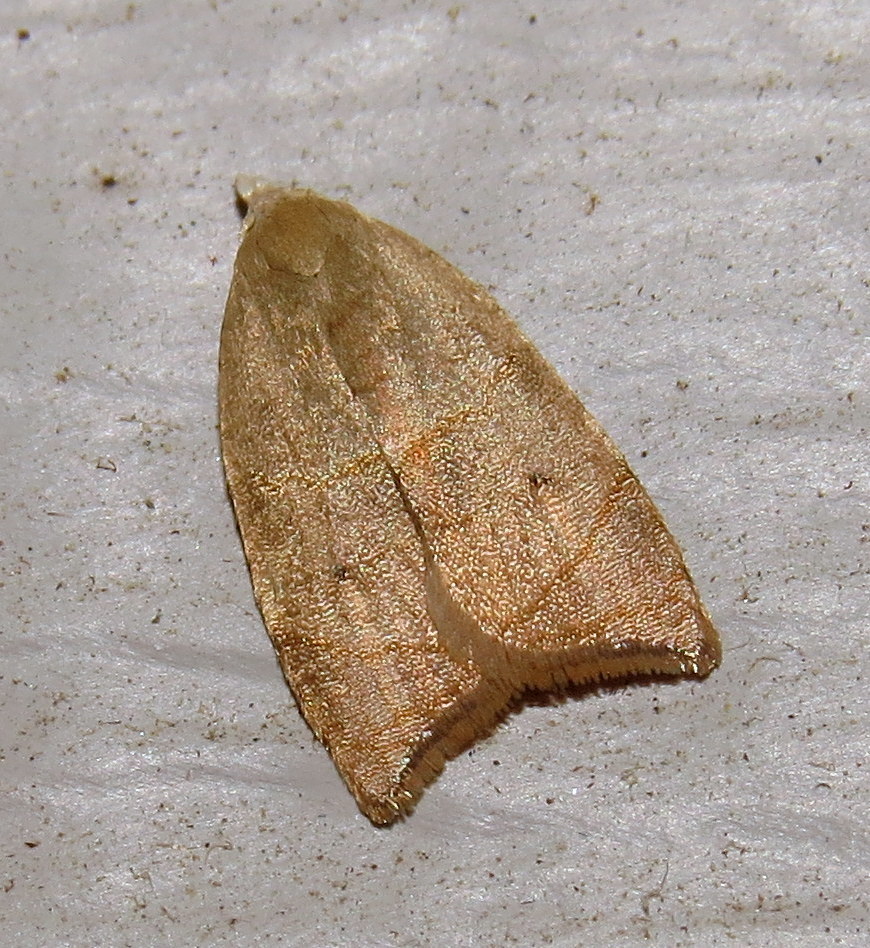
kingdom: Animalia
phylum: Arthropoda
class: Insecta
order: Lepidoptera
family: Tortricidae
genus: Coelostathma
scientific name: Coelostathma discopunctana
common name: Batman moth
